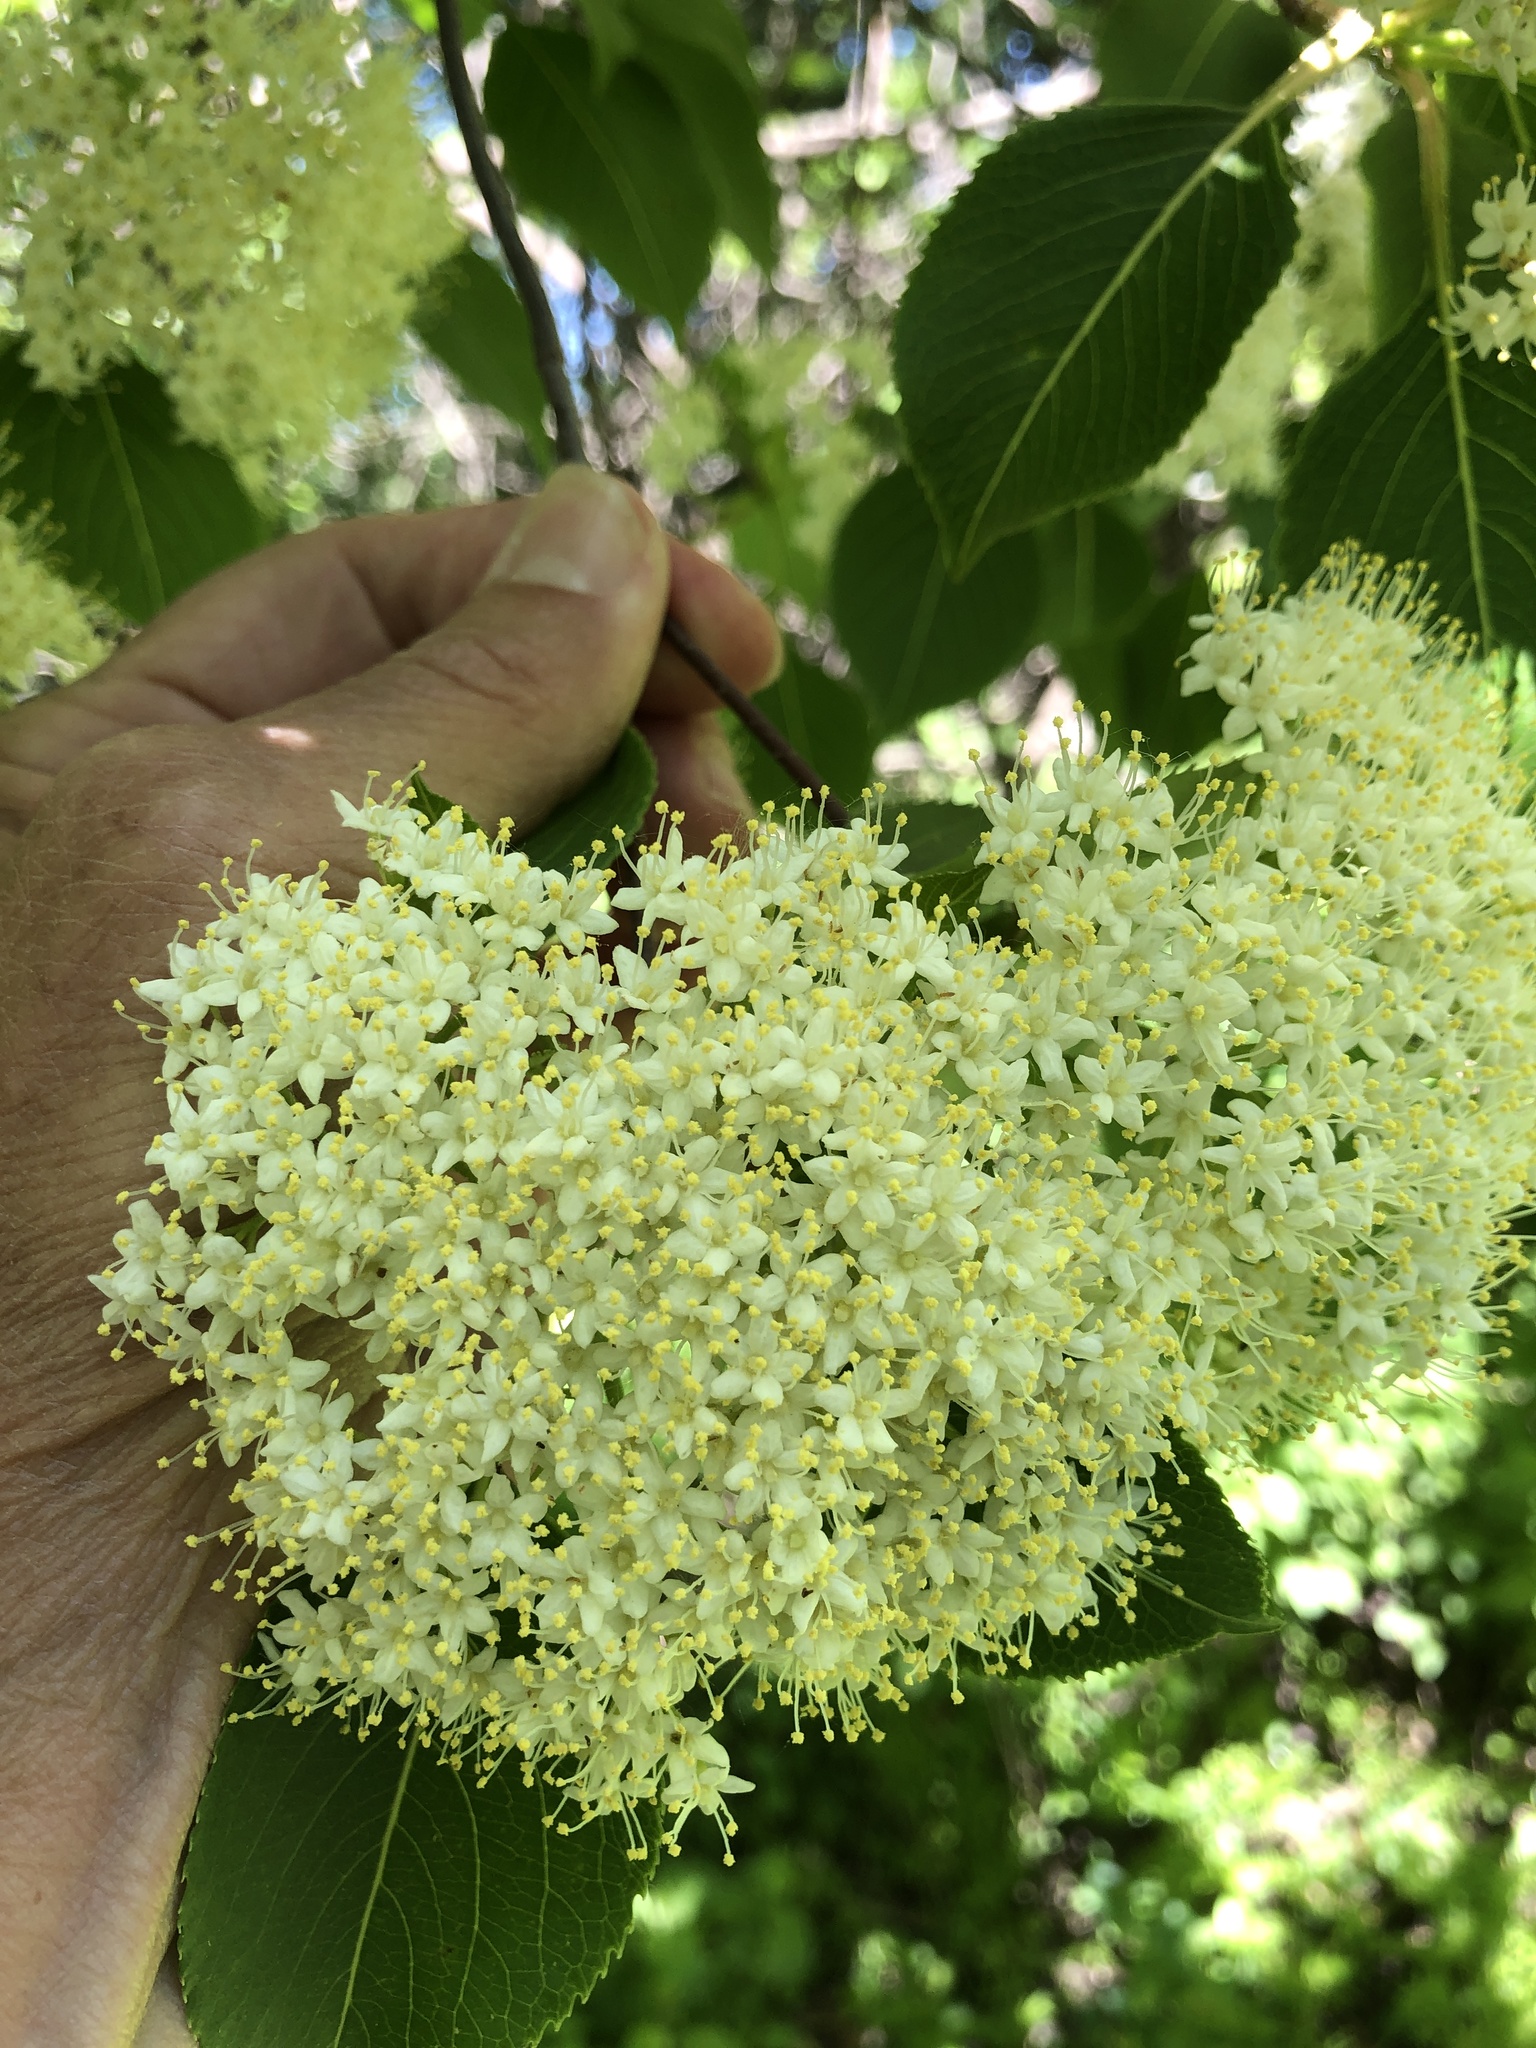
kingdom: Plantae
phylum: Tracheophyta
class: Magnoliopsida
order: Dipsacales
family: Viburnaceae
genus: Viburnum
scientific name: Viburnum lentago
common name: Black haw
